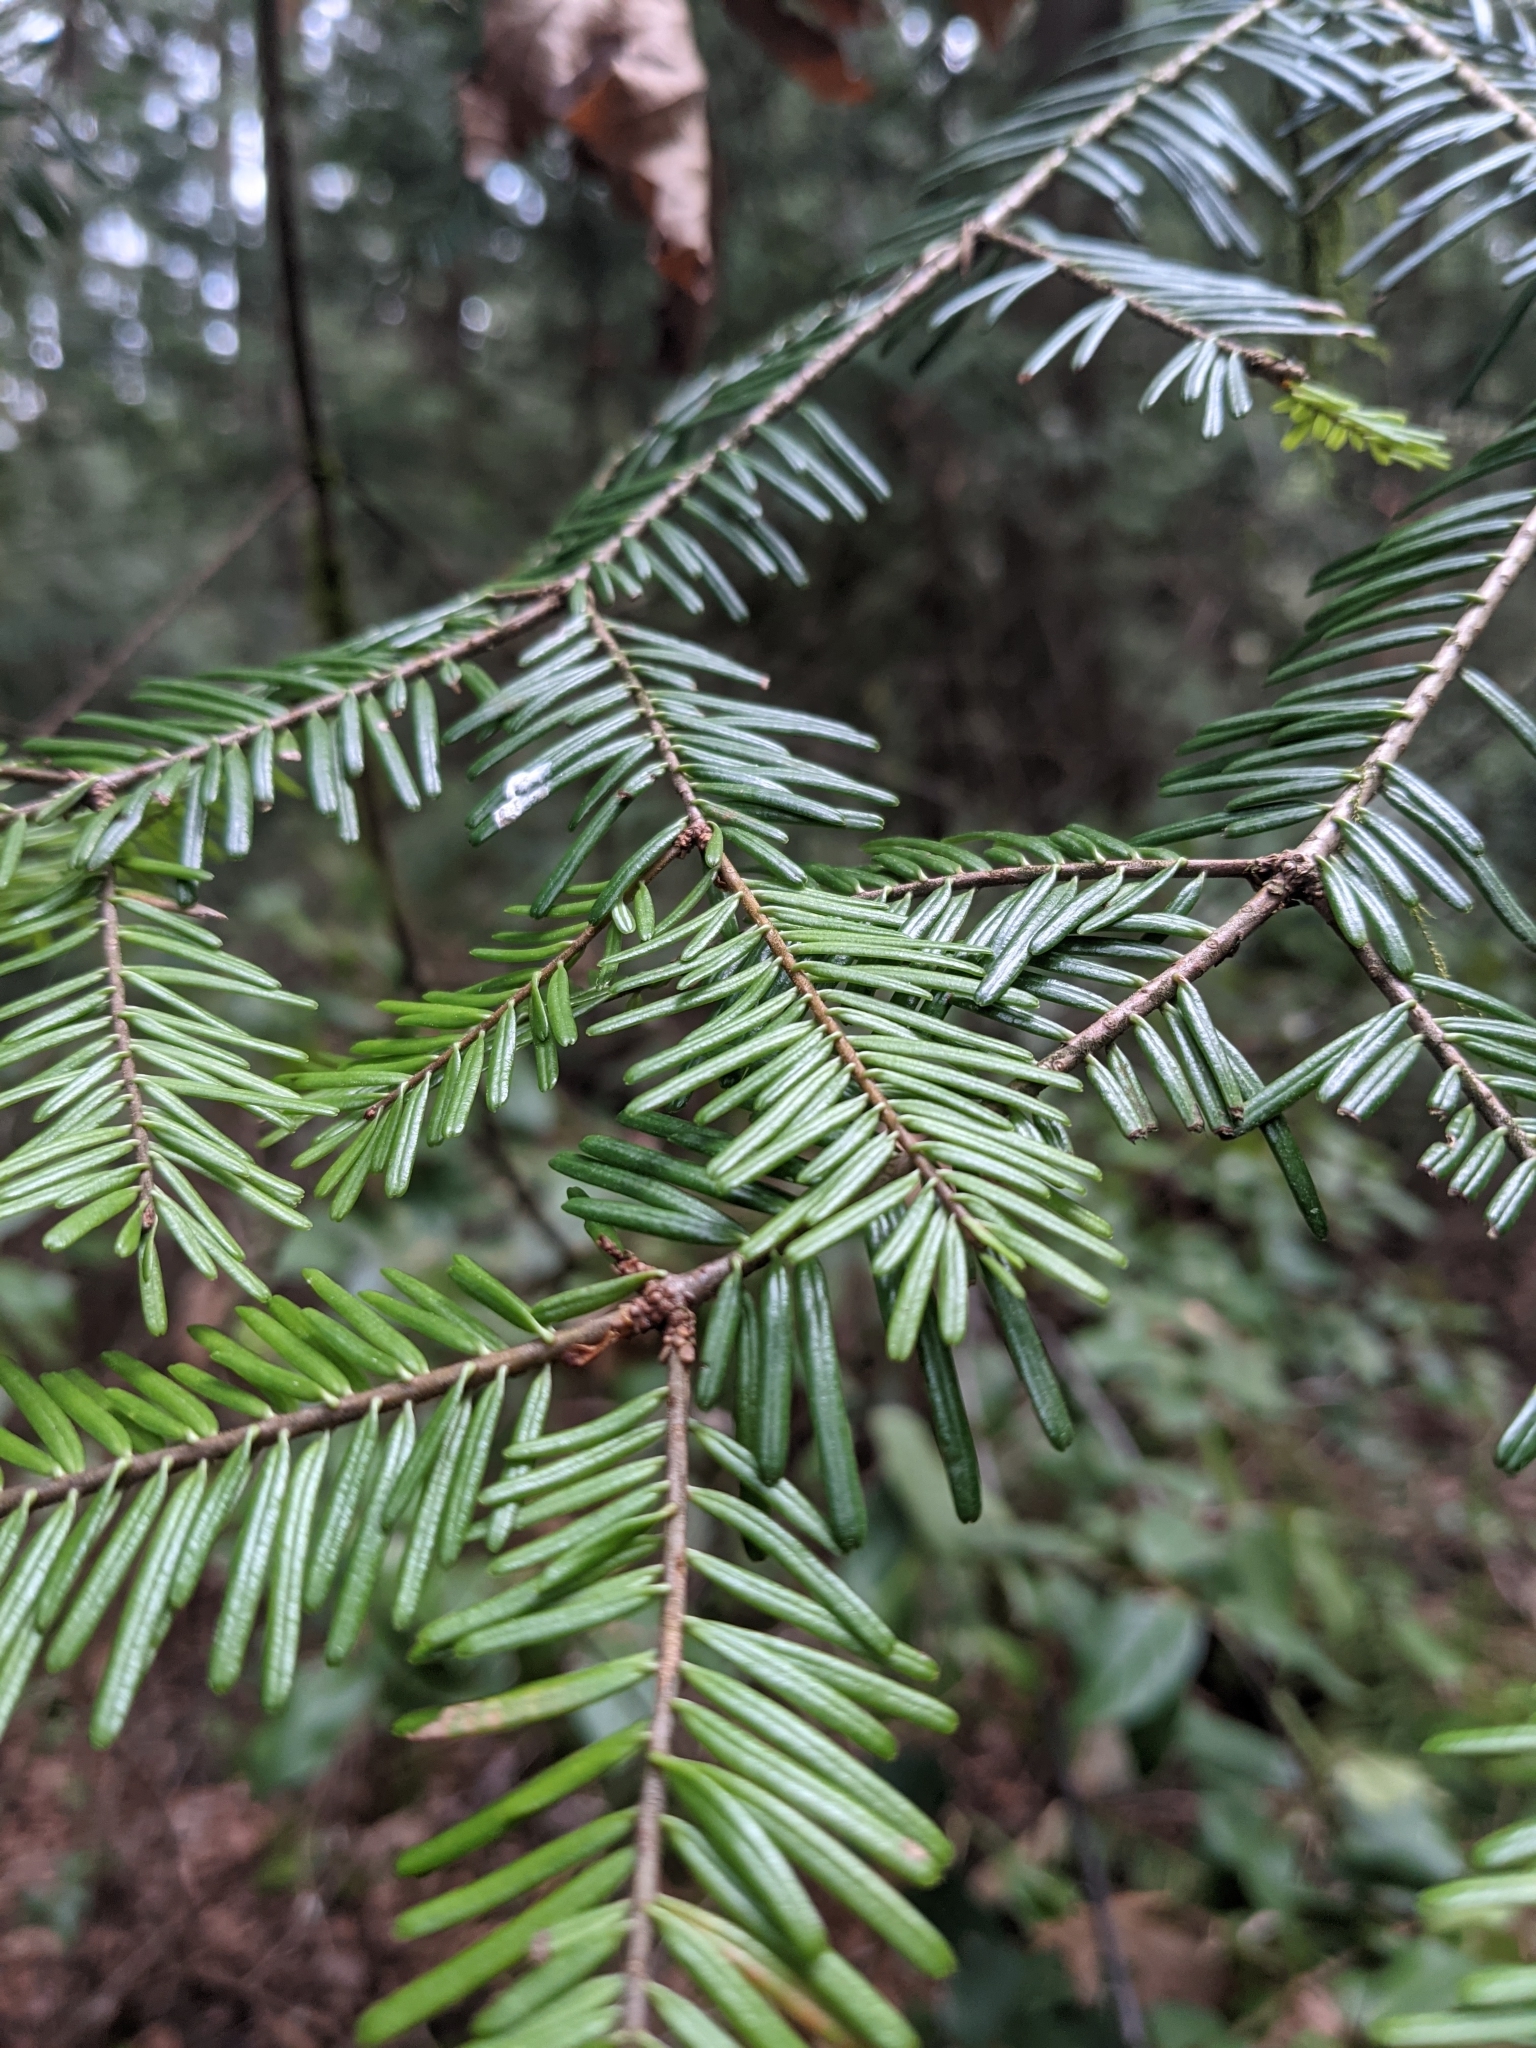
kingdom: Plantae
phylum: Tracheophyta
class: Pinopsida
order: Pinales
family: Pinaceae
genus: Abies
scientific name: Abies grandis
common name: Giant fir
